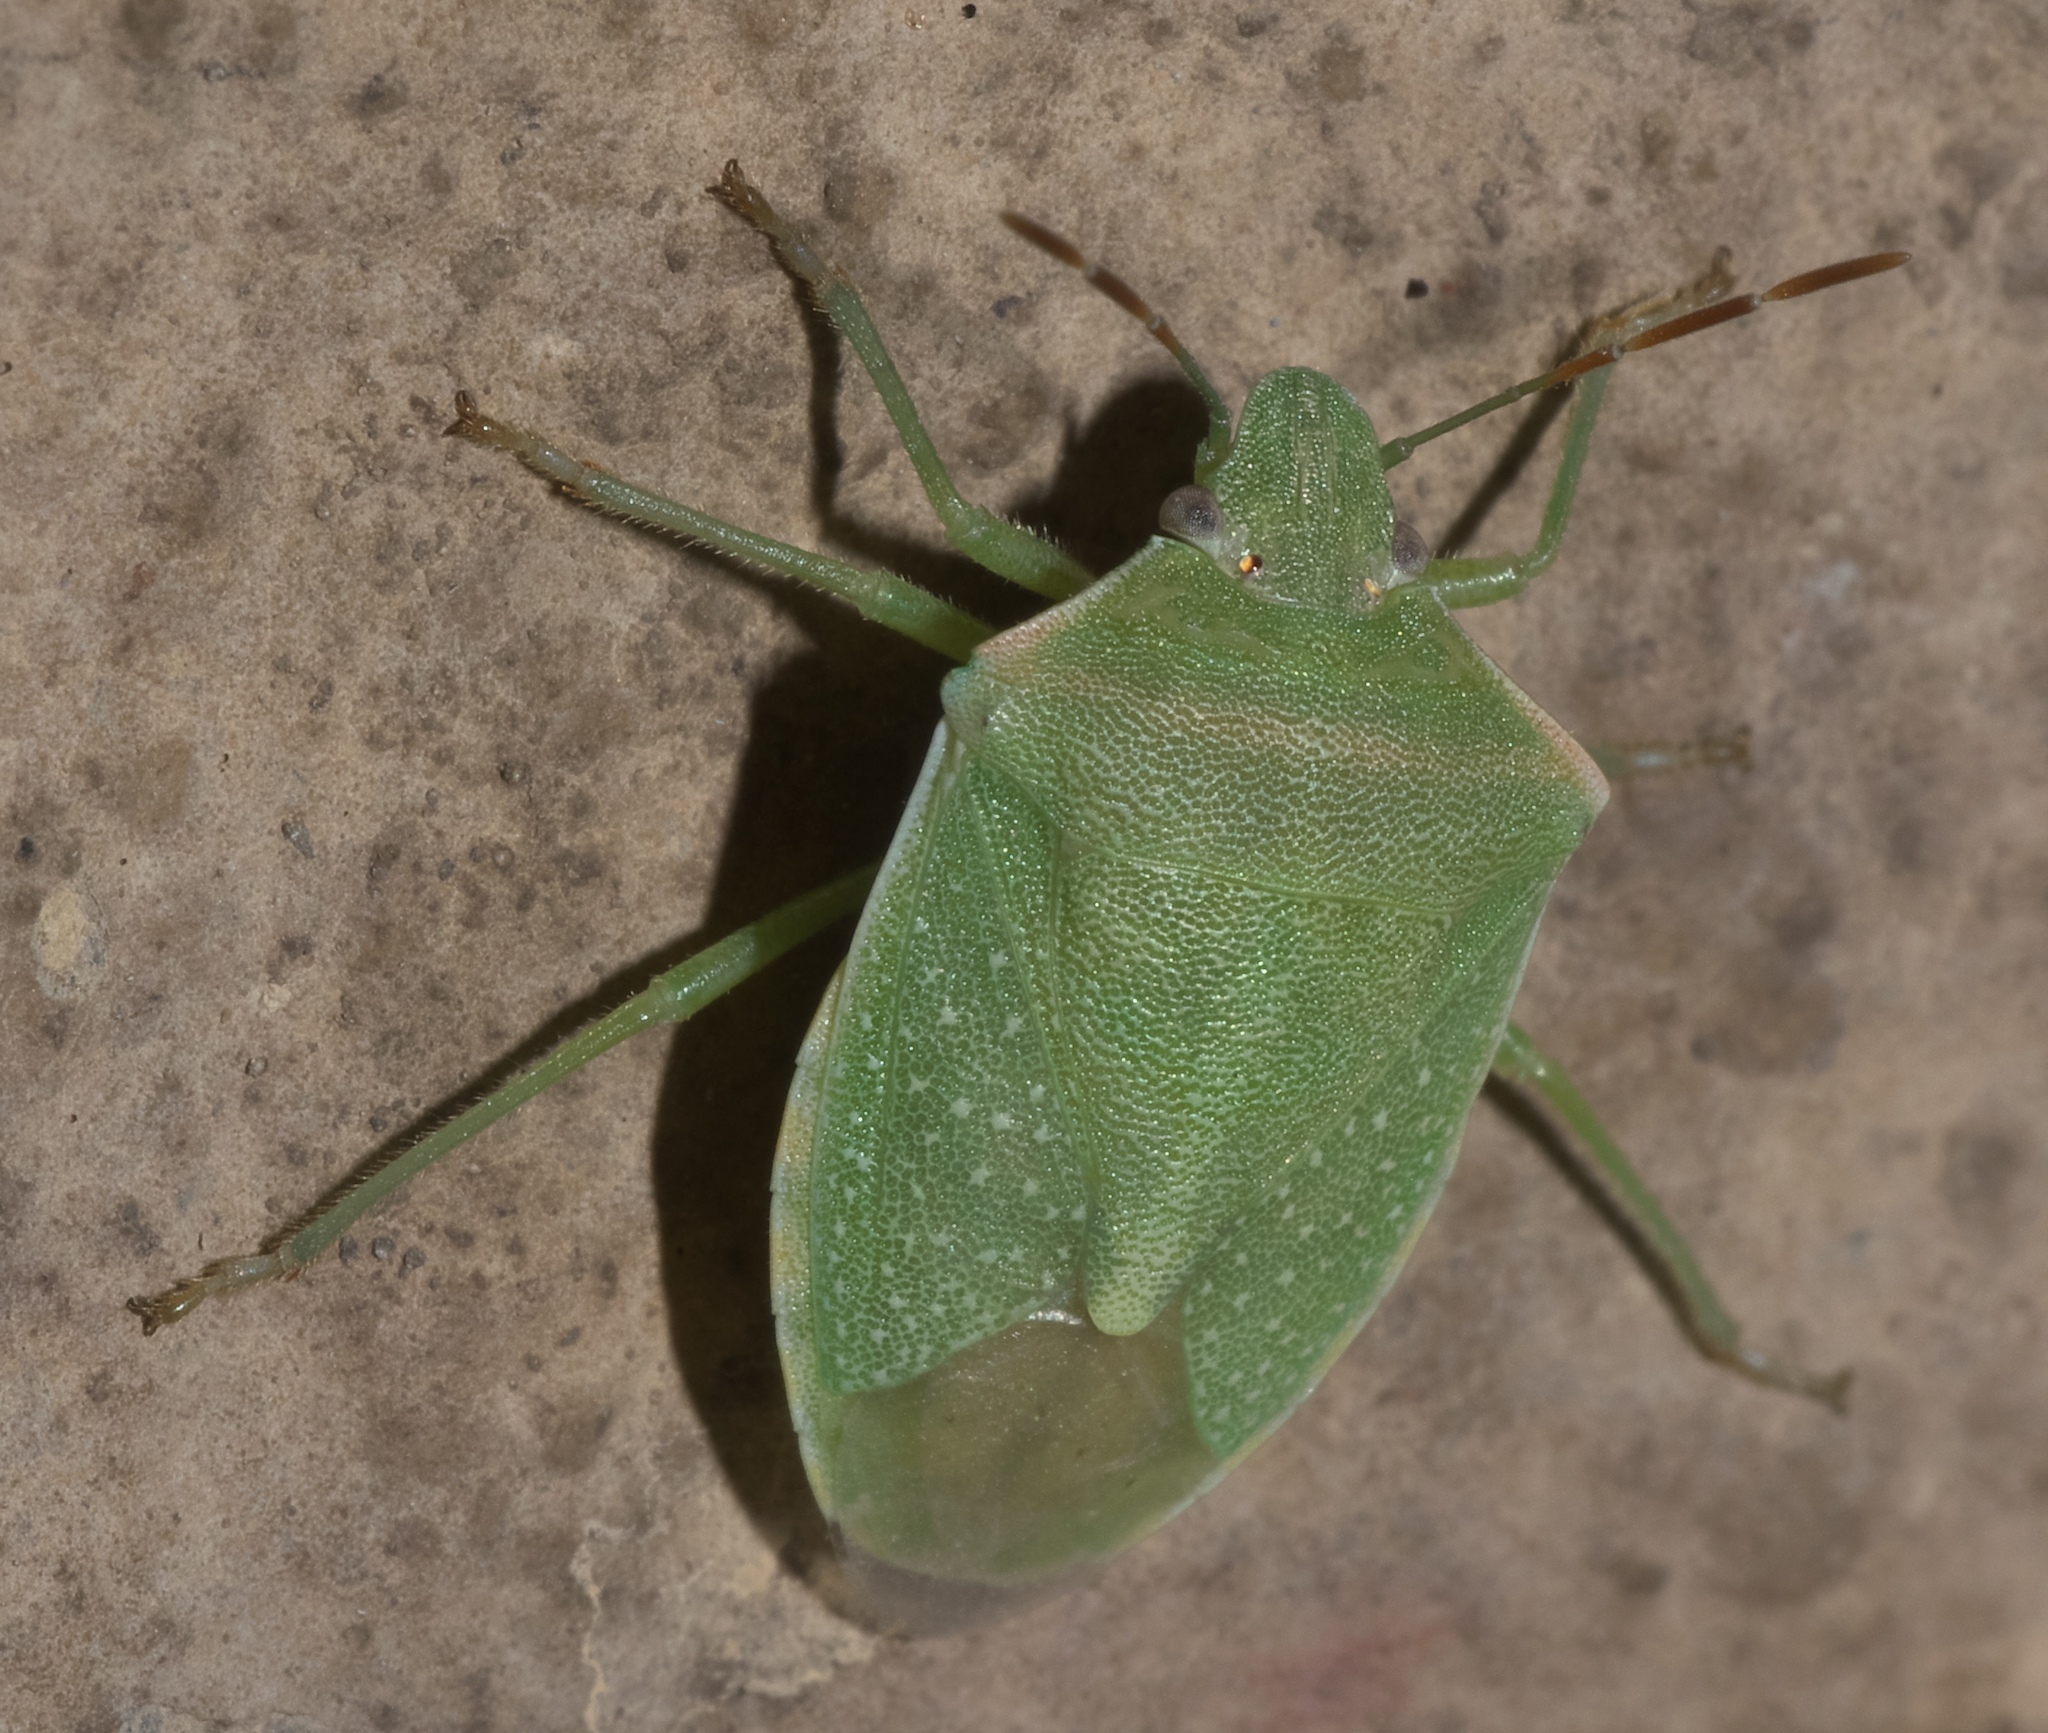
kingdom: Animalia
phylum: Arthropoda
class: Insecta
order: Hemiptera
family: Pentatomidae
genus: Thyanta
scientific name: Thyanta accerra
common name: Stink bug
